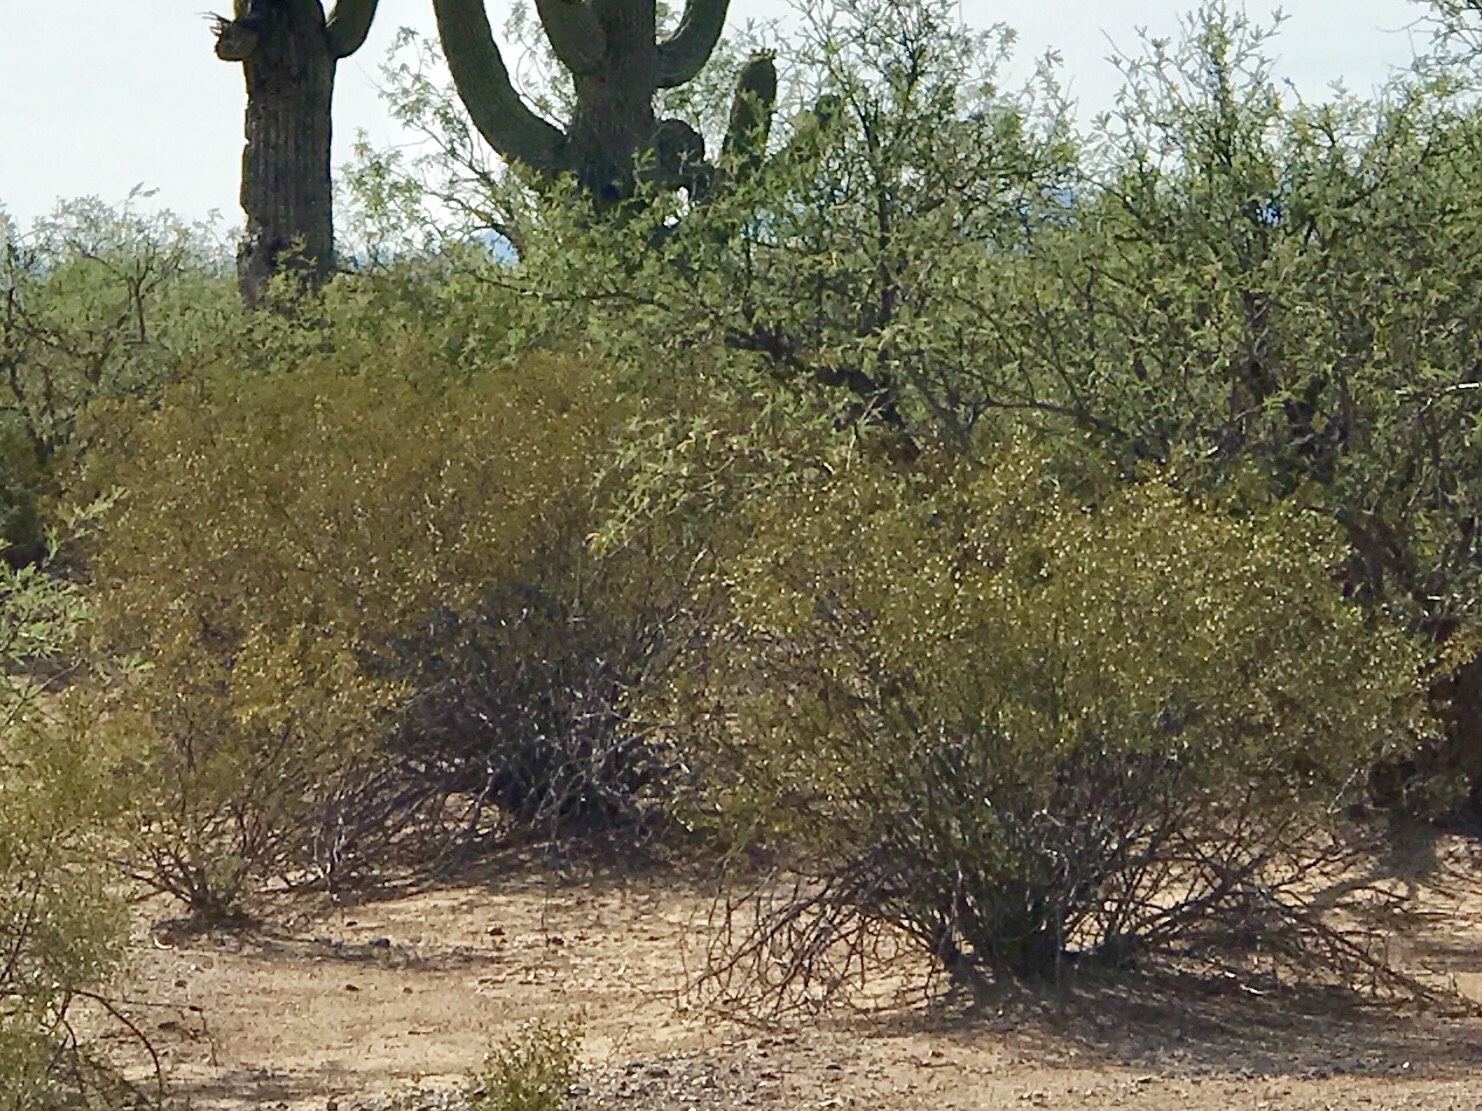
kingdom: Plantae
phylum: Tracheophyta
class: Magnoliopsida
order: Zygophyllales
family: Zygophyllaceae
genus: Larrea
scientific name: Larrea tridentata
